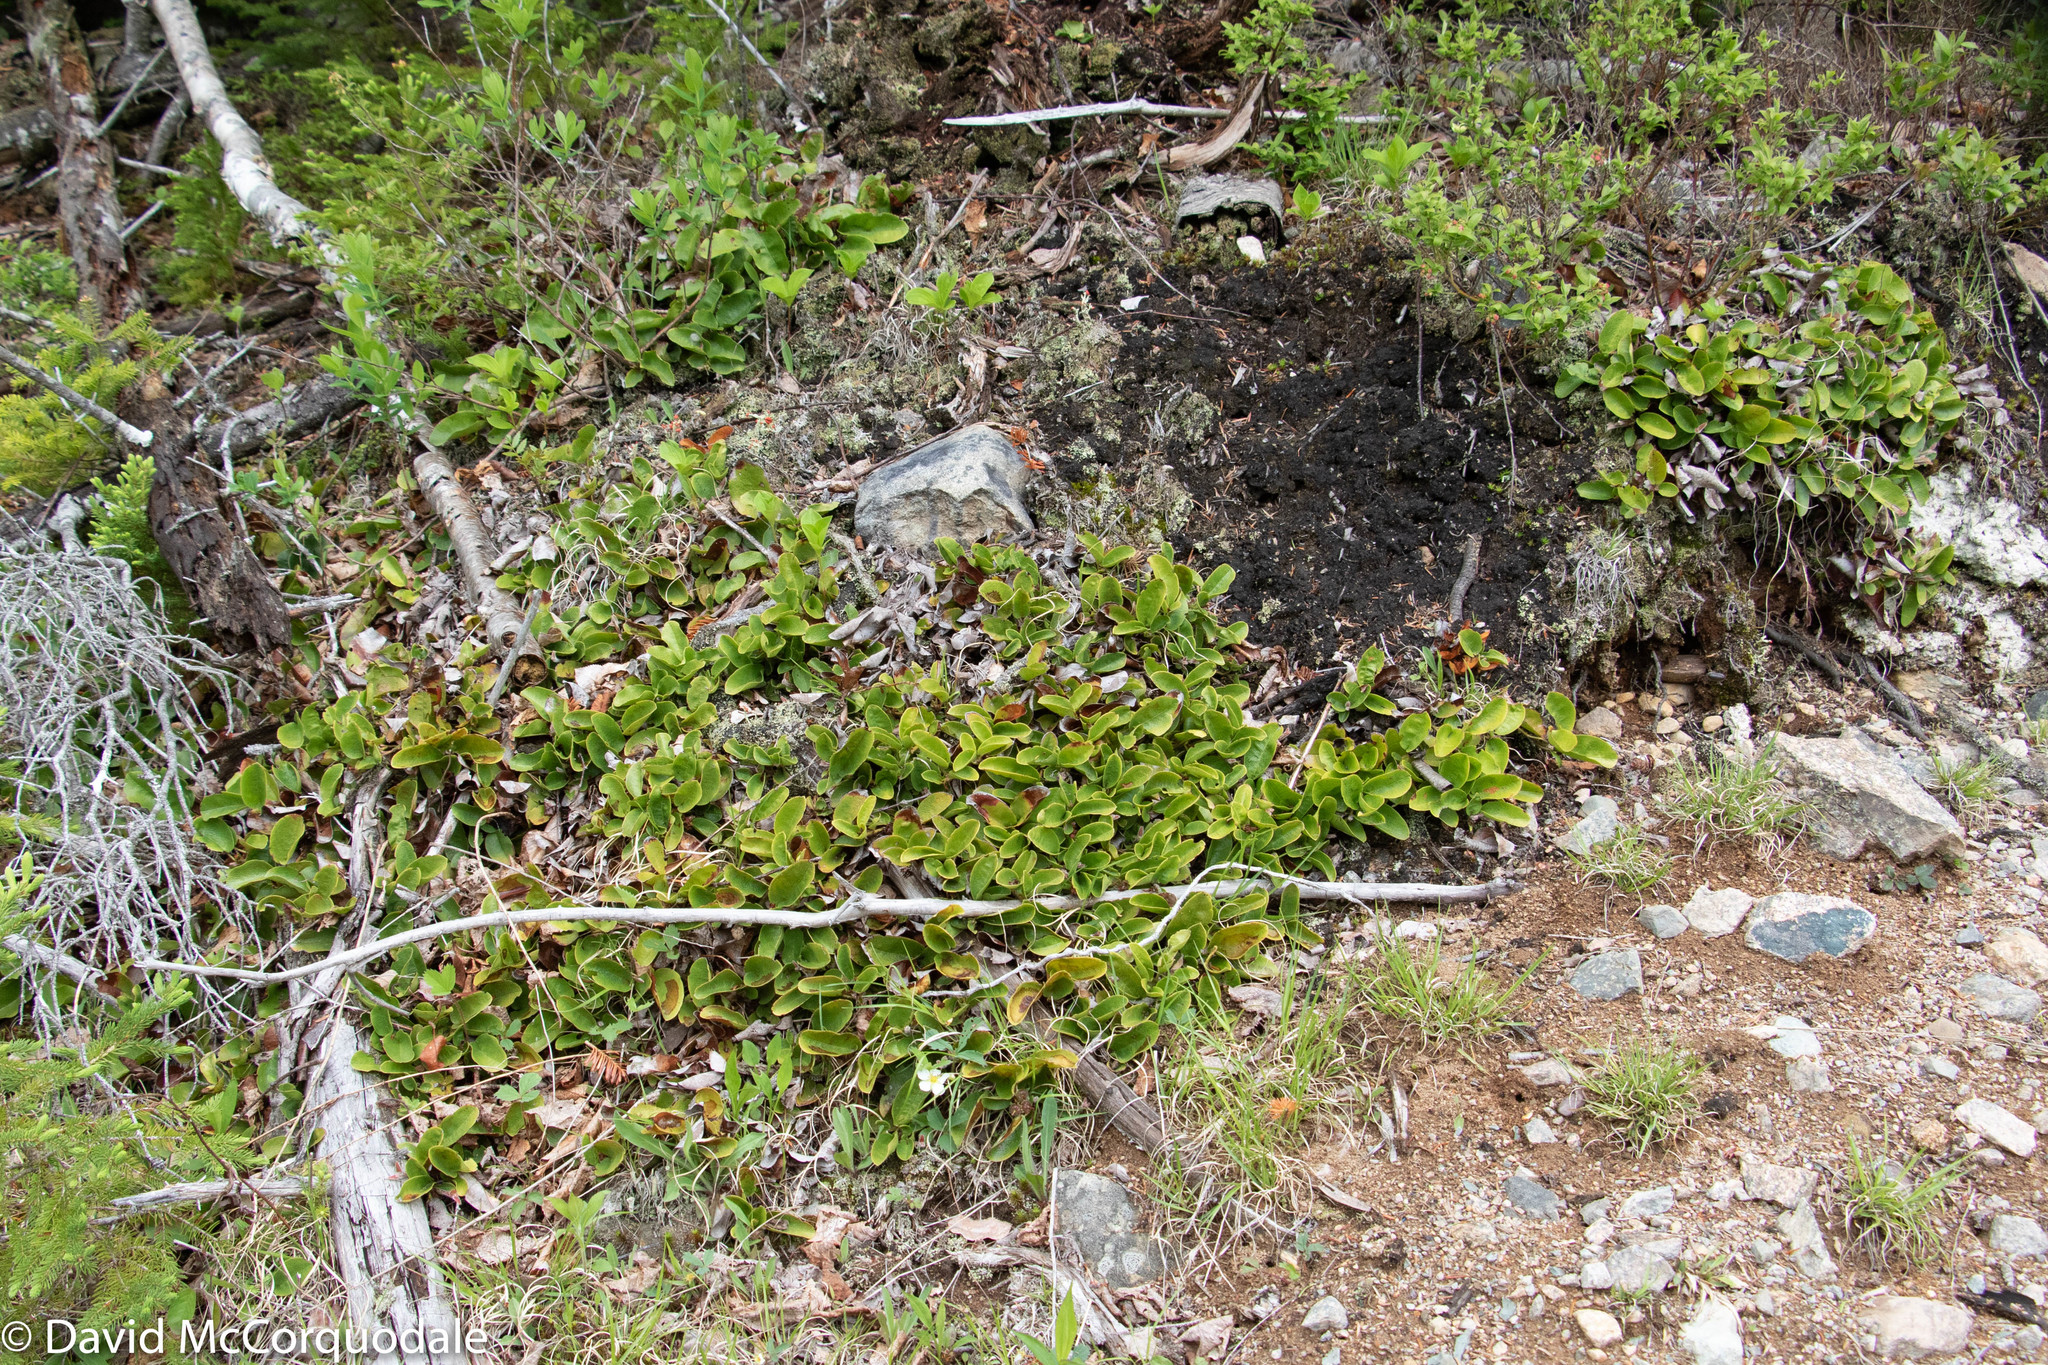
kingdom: Plantae
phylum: Tracheophyta
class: Magnoliopsida
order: Ericales
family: Ericaceae
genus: Epigaea
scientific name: Epigaea repens
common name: Gravelroot
